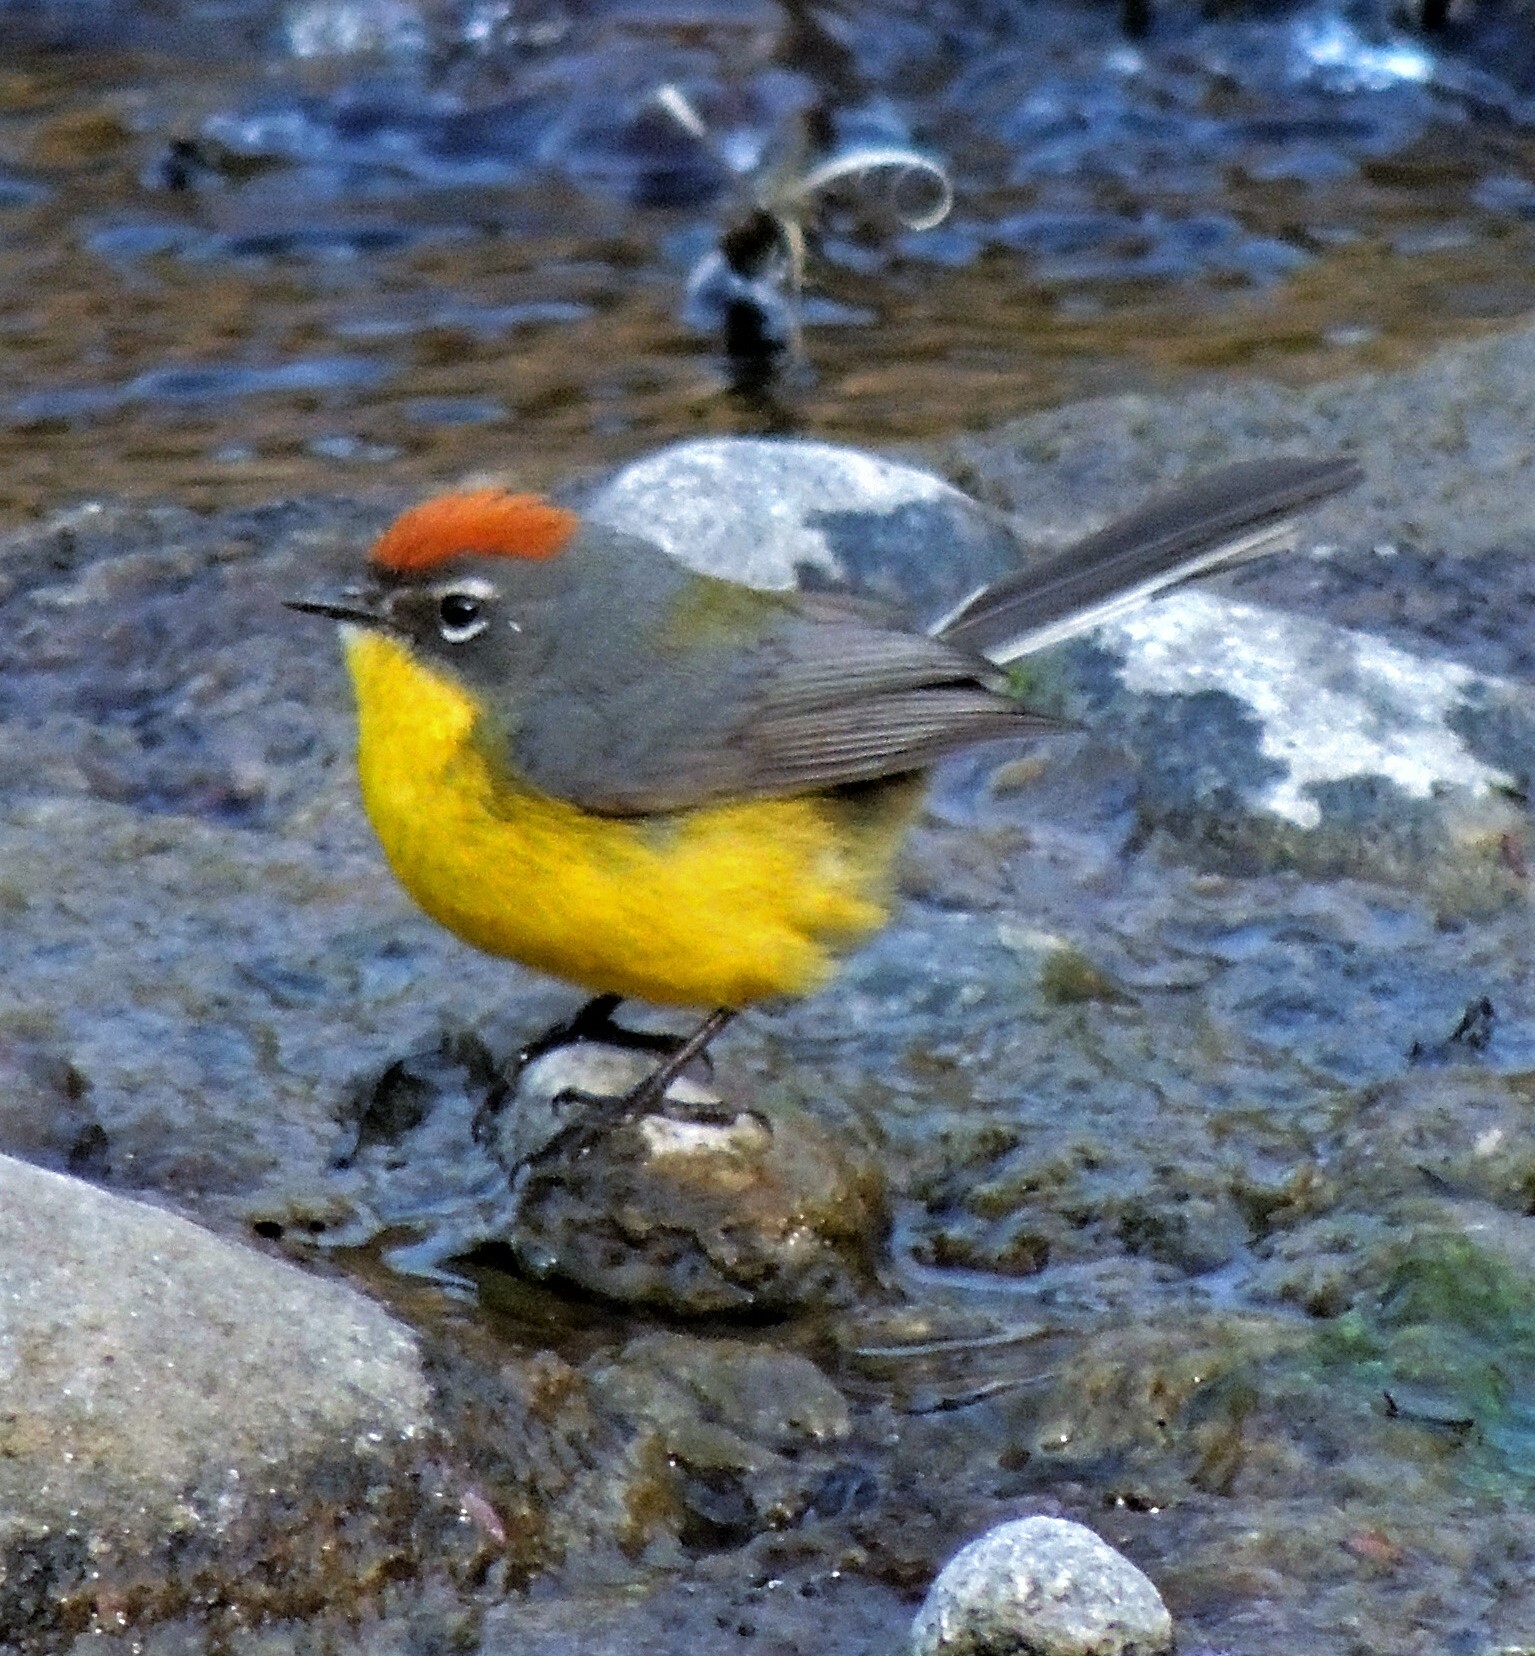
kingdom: Animalia
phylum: Chordata
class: Aves
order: Passeriformes
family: Parulidae
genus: Myioborus
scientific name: Myioborus brunniceps
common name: Brown-capped whitestart
